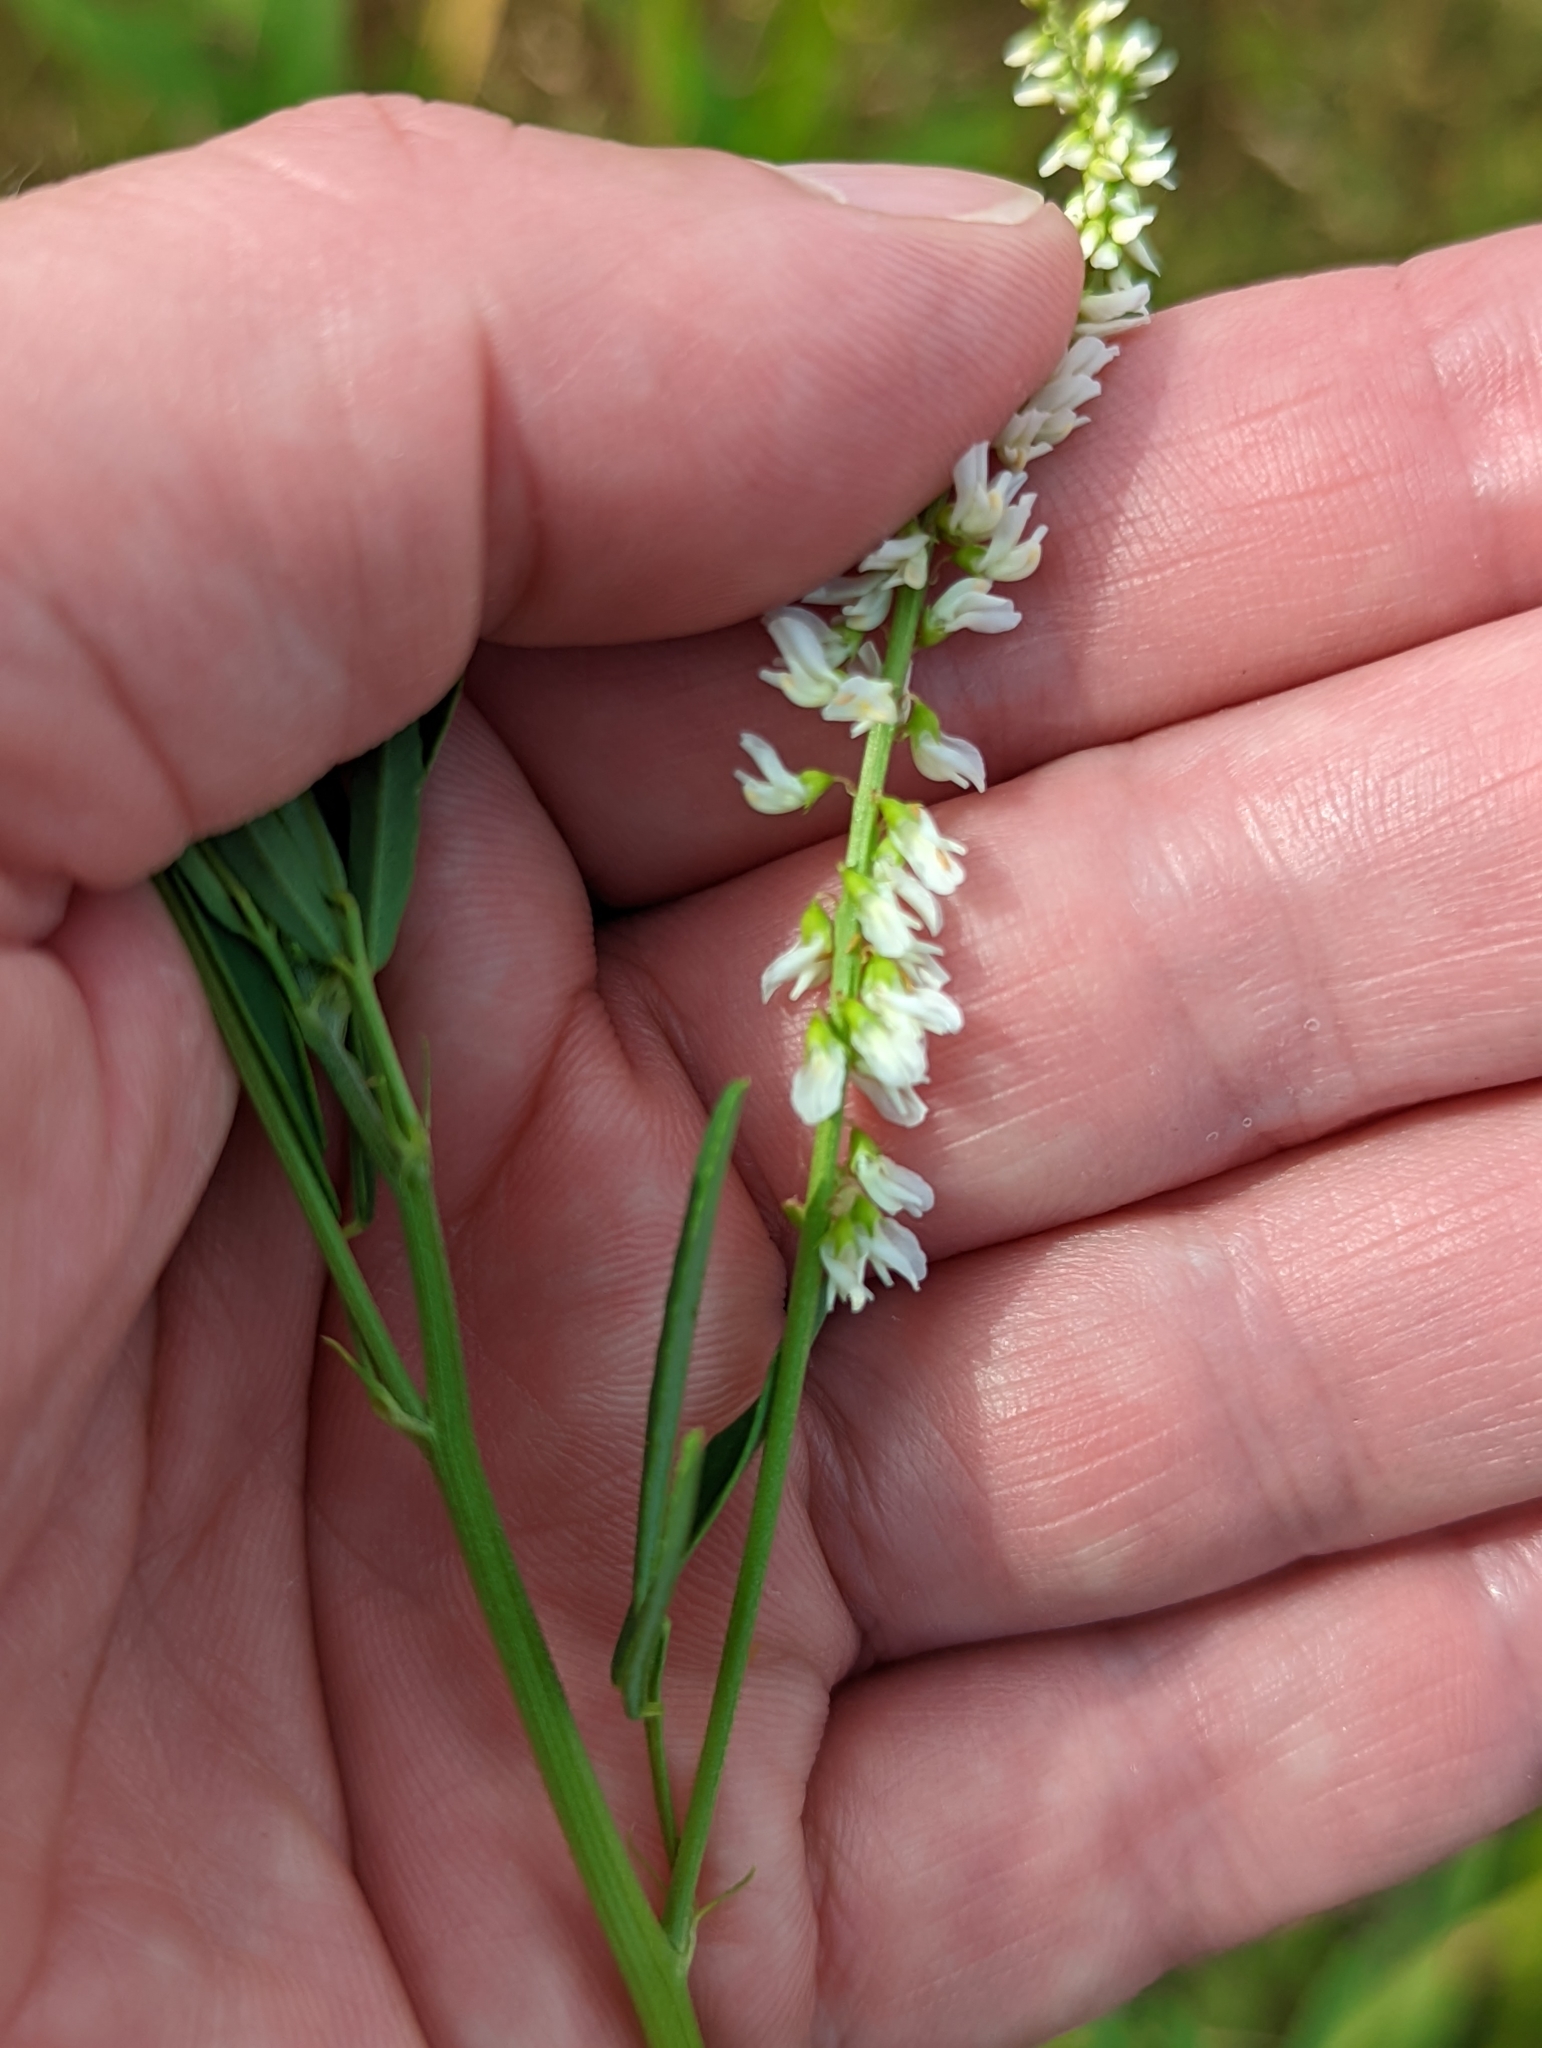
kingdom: Plantae
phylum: Tracheophyta
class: Magnoliopsida
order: Fabales
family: Fabaceae
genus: Melilotus
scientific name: Melilotus albus
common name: White melilot
